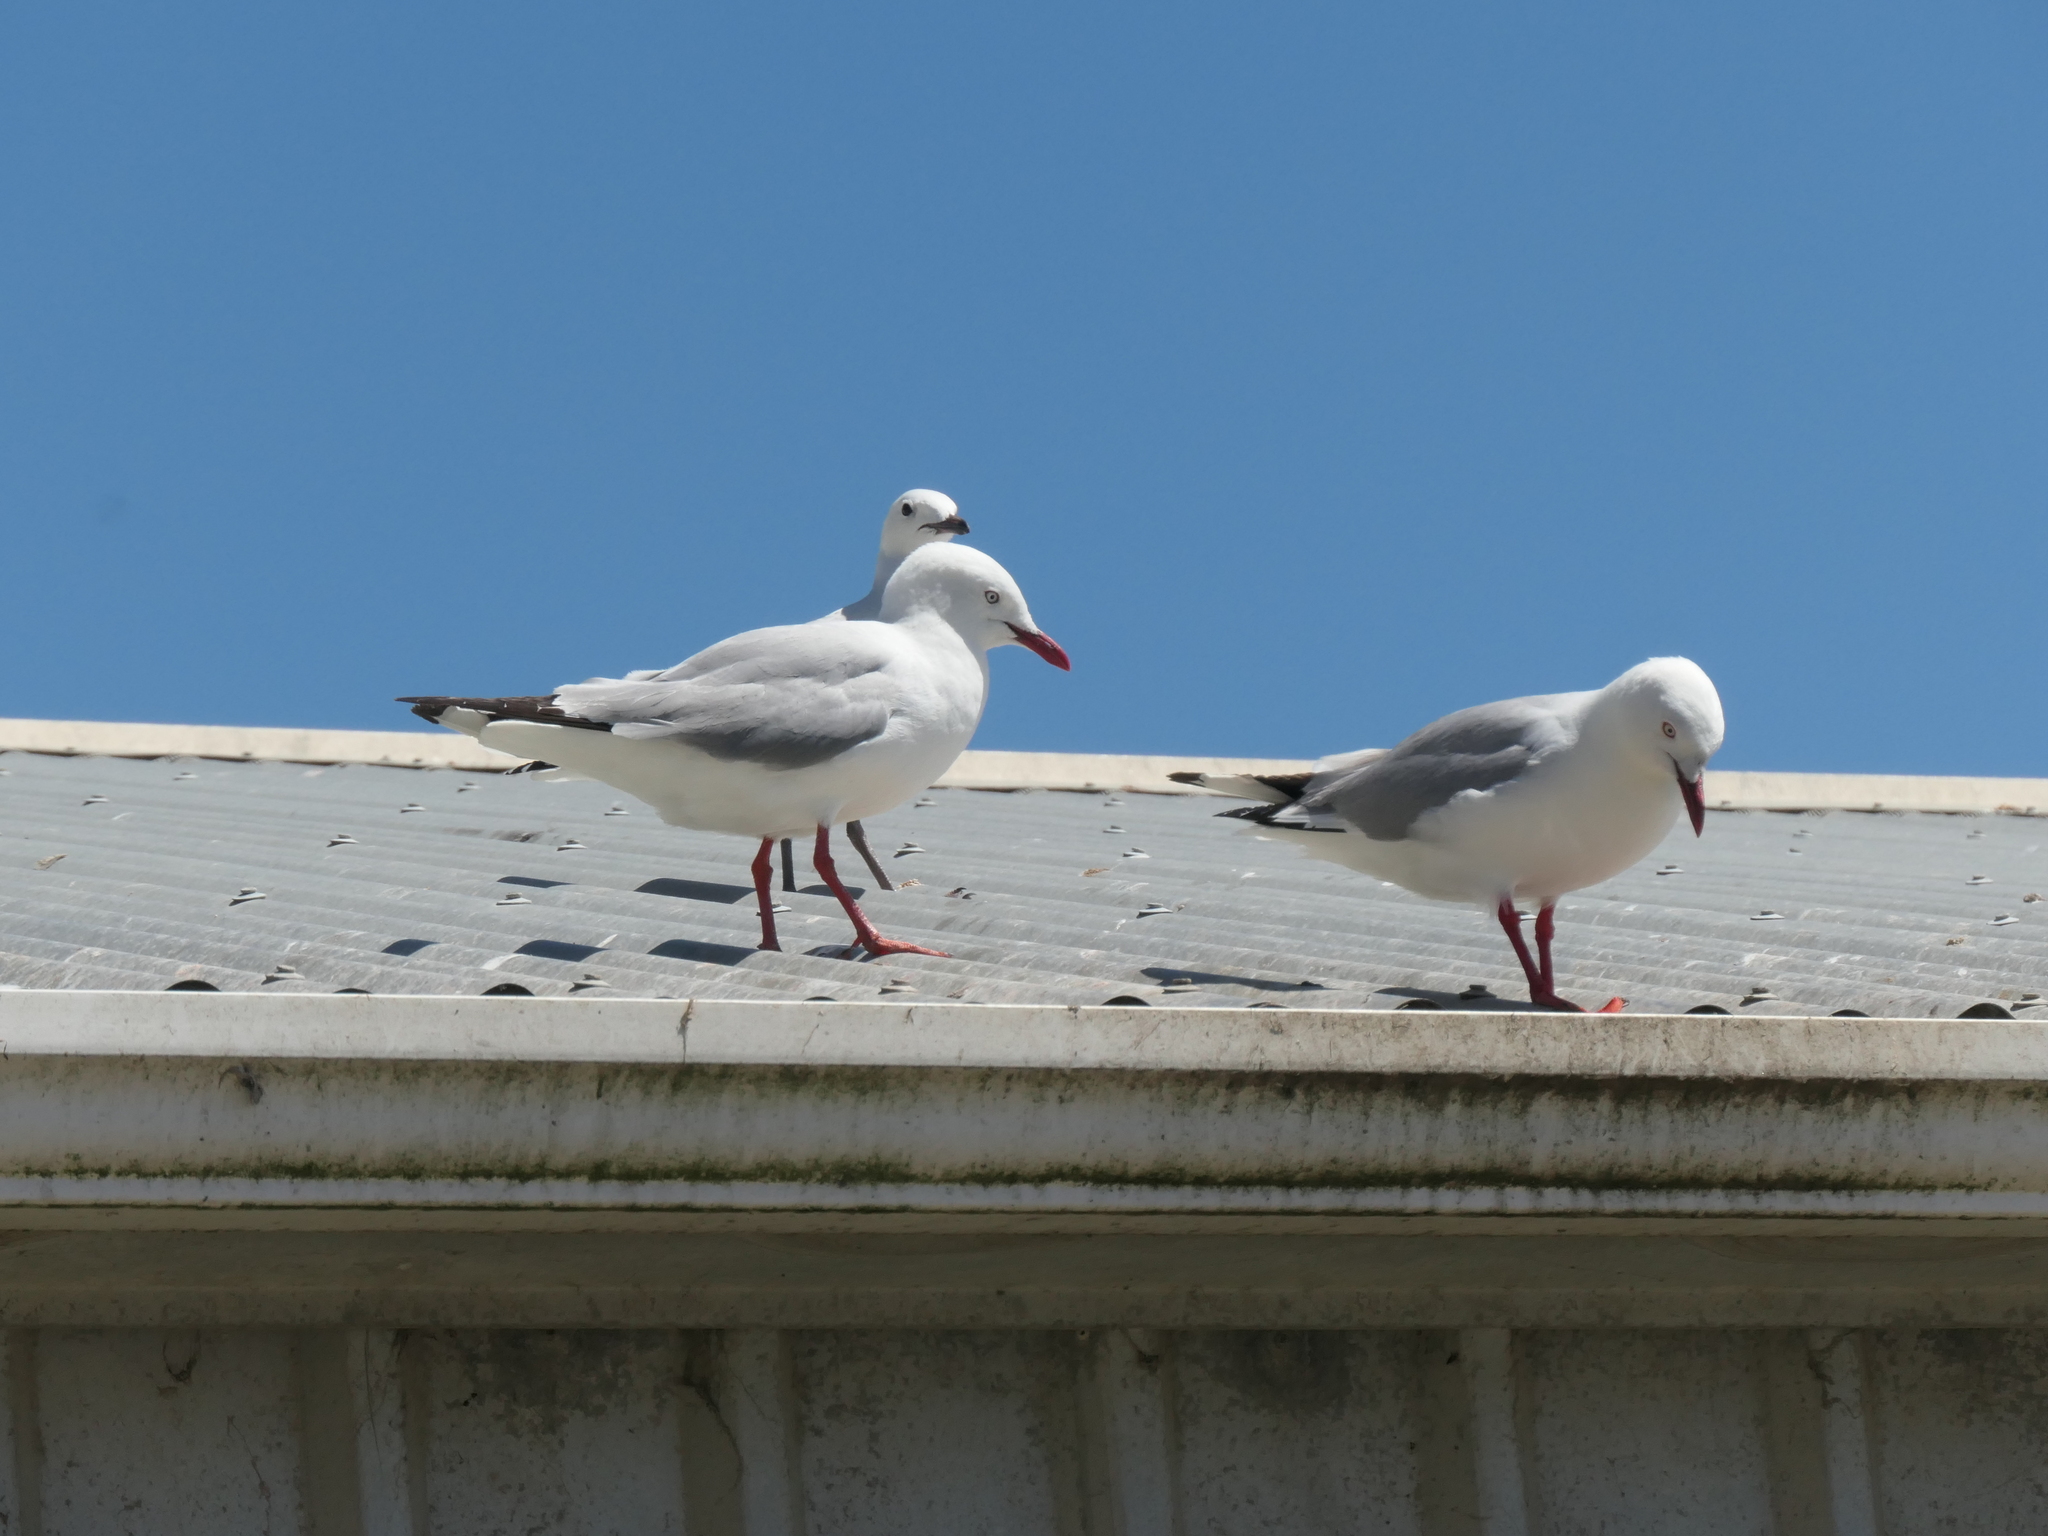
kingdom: Animalia
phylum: Chordata
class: Aves
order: Charadriiformes
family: Laridae
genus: Chroicocephalus
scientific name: Chroicocephalus novaehollandiae
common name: Silver gull
